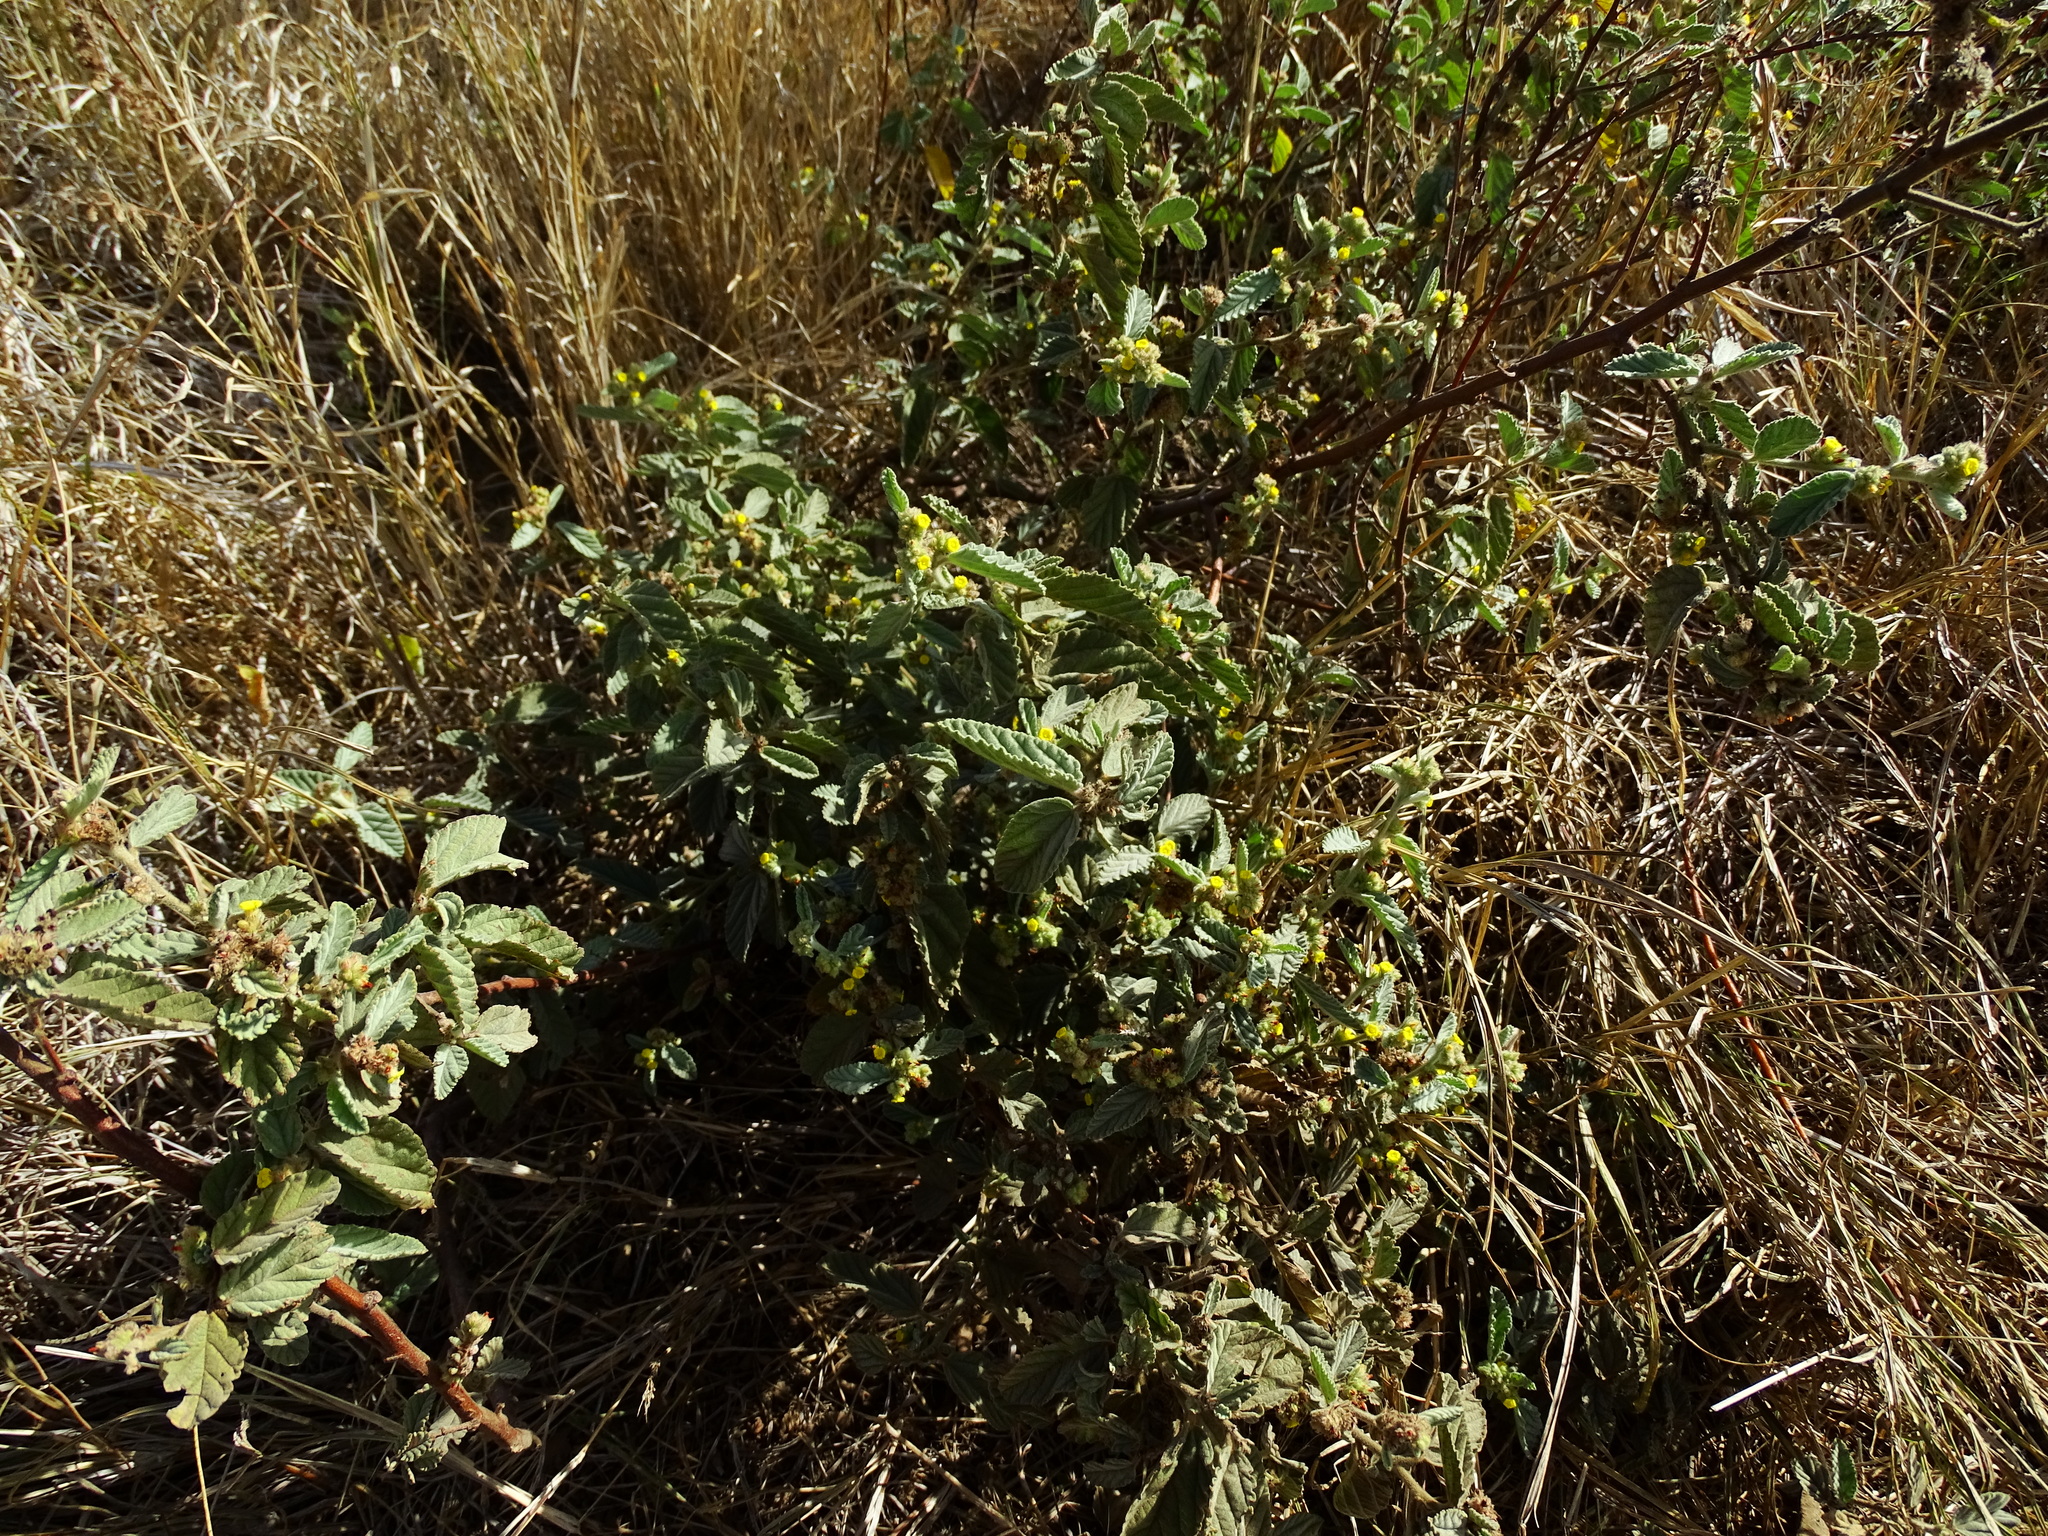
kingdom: Plantae
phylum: Tracheophyta
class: Magnoliopsida
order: Malvales
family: Malvaceae
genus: Waltheria
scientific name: Waltheria indica
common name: Leather-coat
